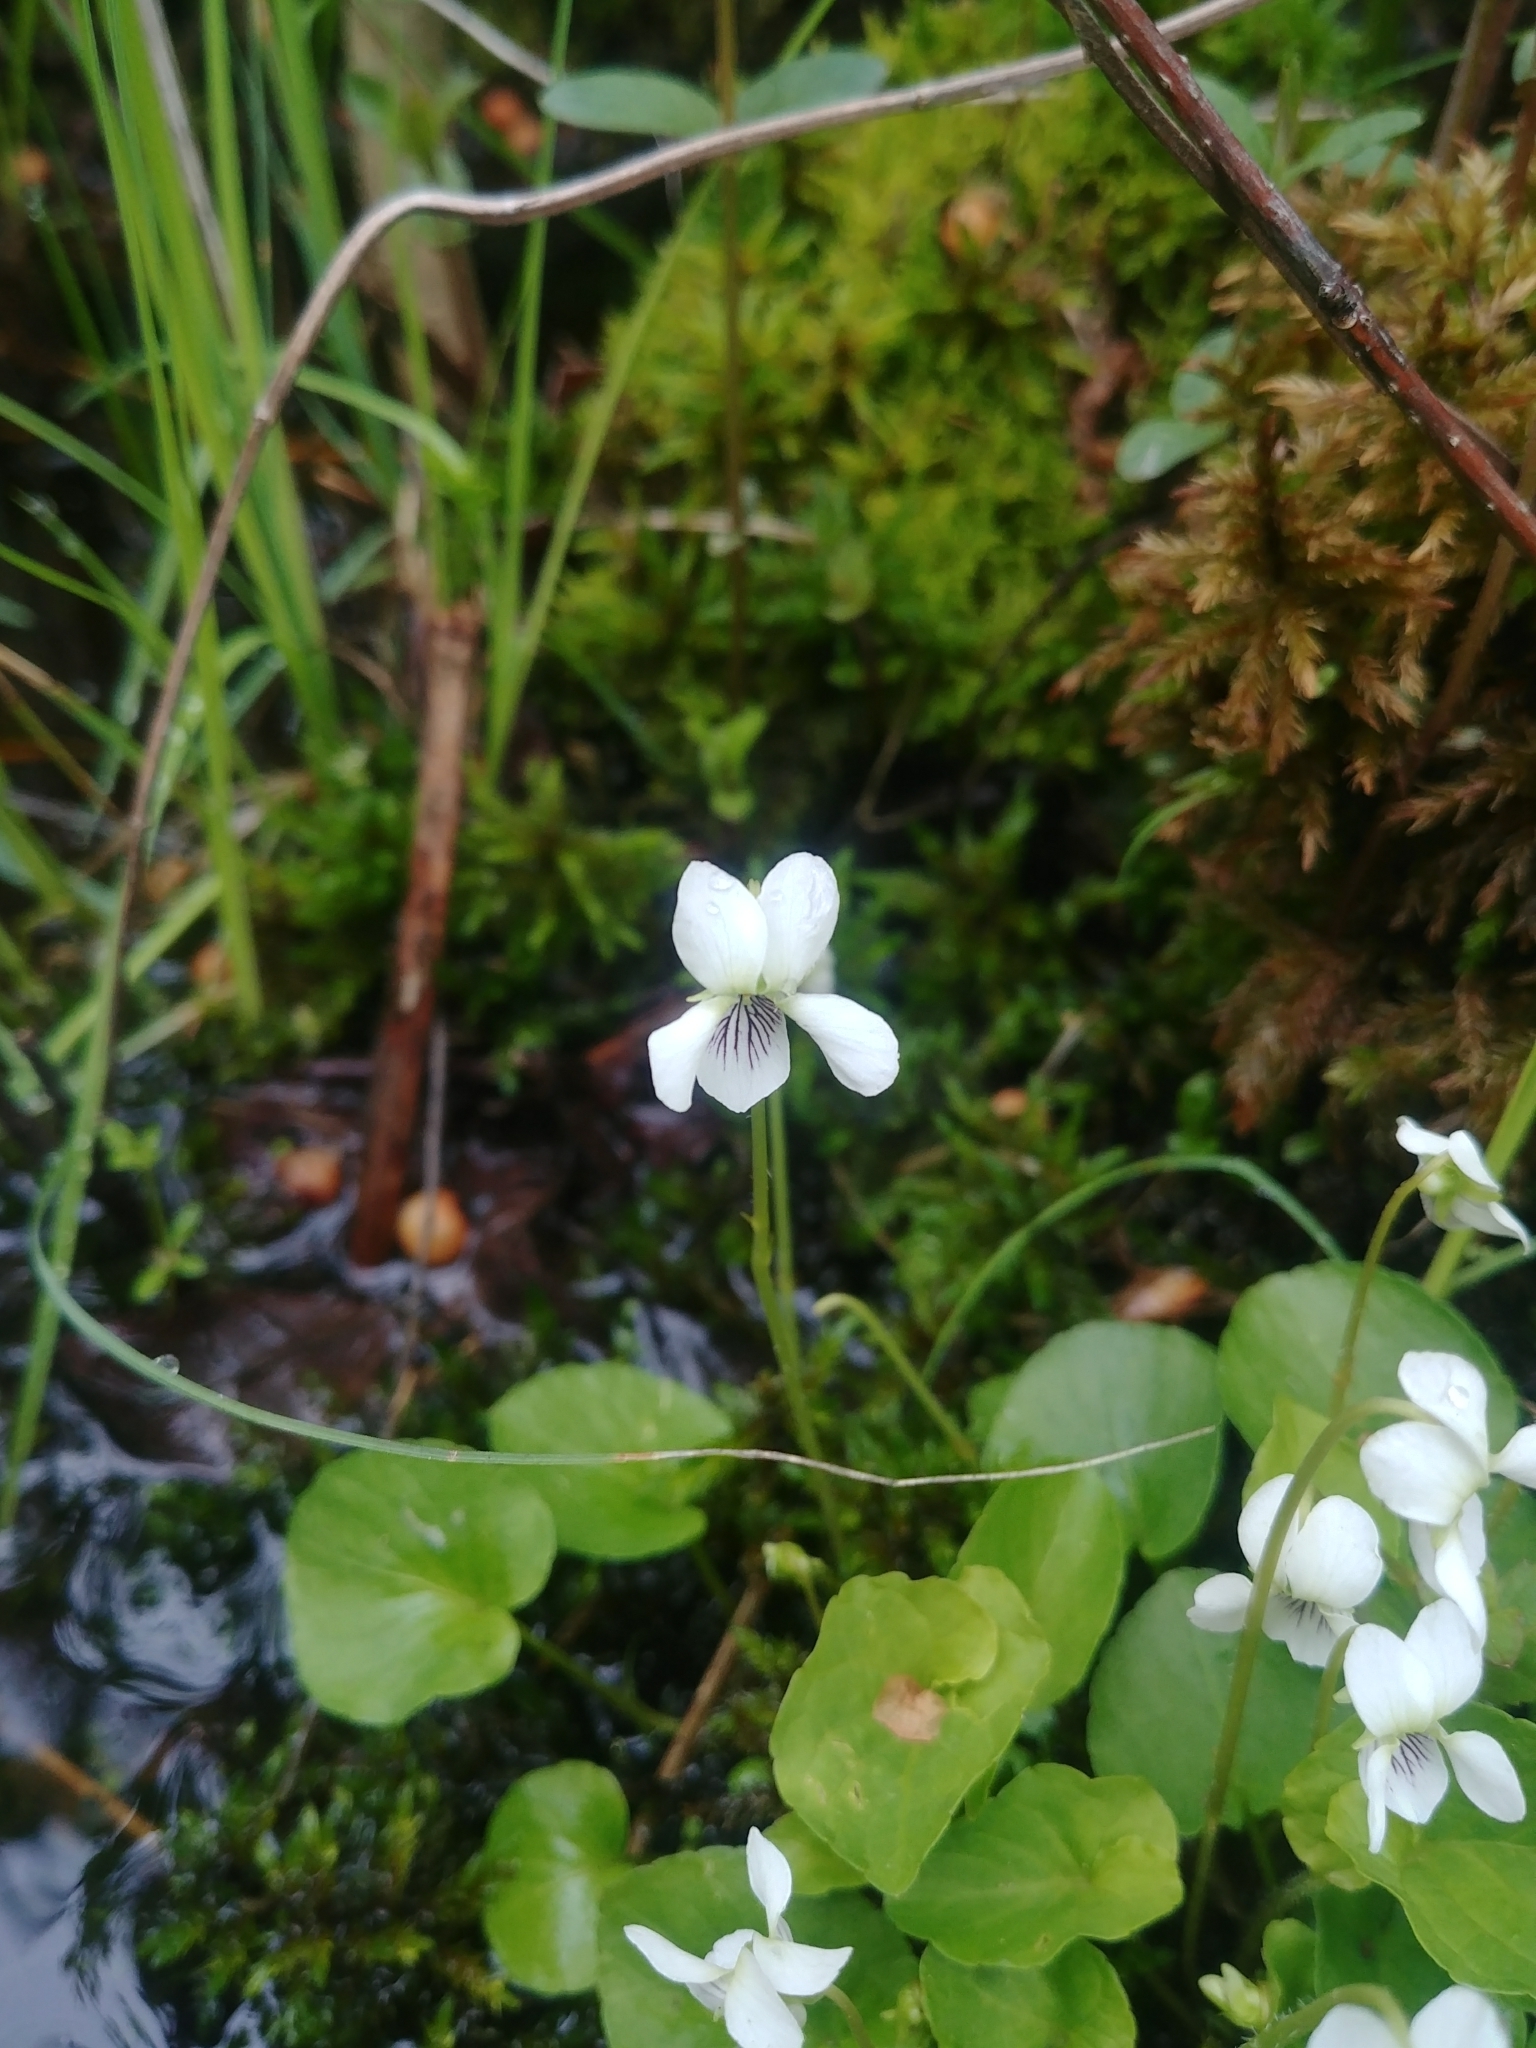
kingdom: Plantae
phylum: Tracheophyta
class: Magnoliopsida
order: Malpighiales
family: Violaceae
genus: Viola
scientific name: Viola minuscula
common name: Northern white violet
